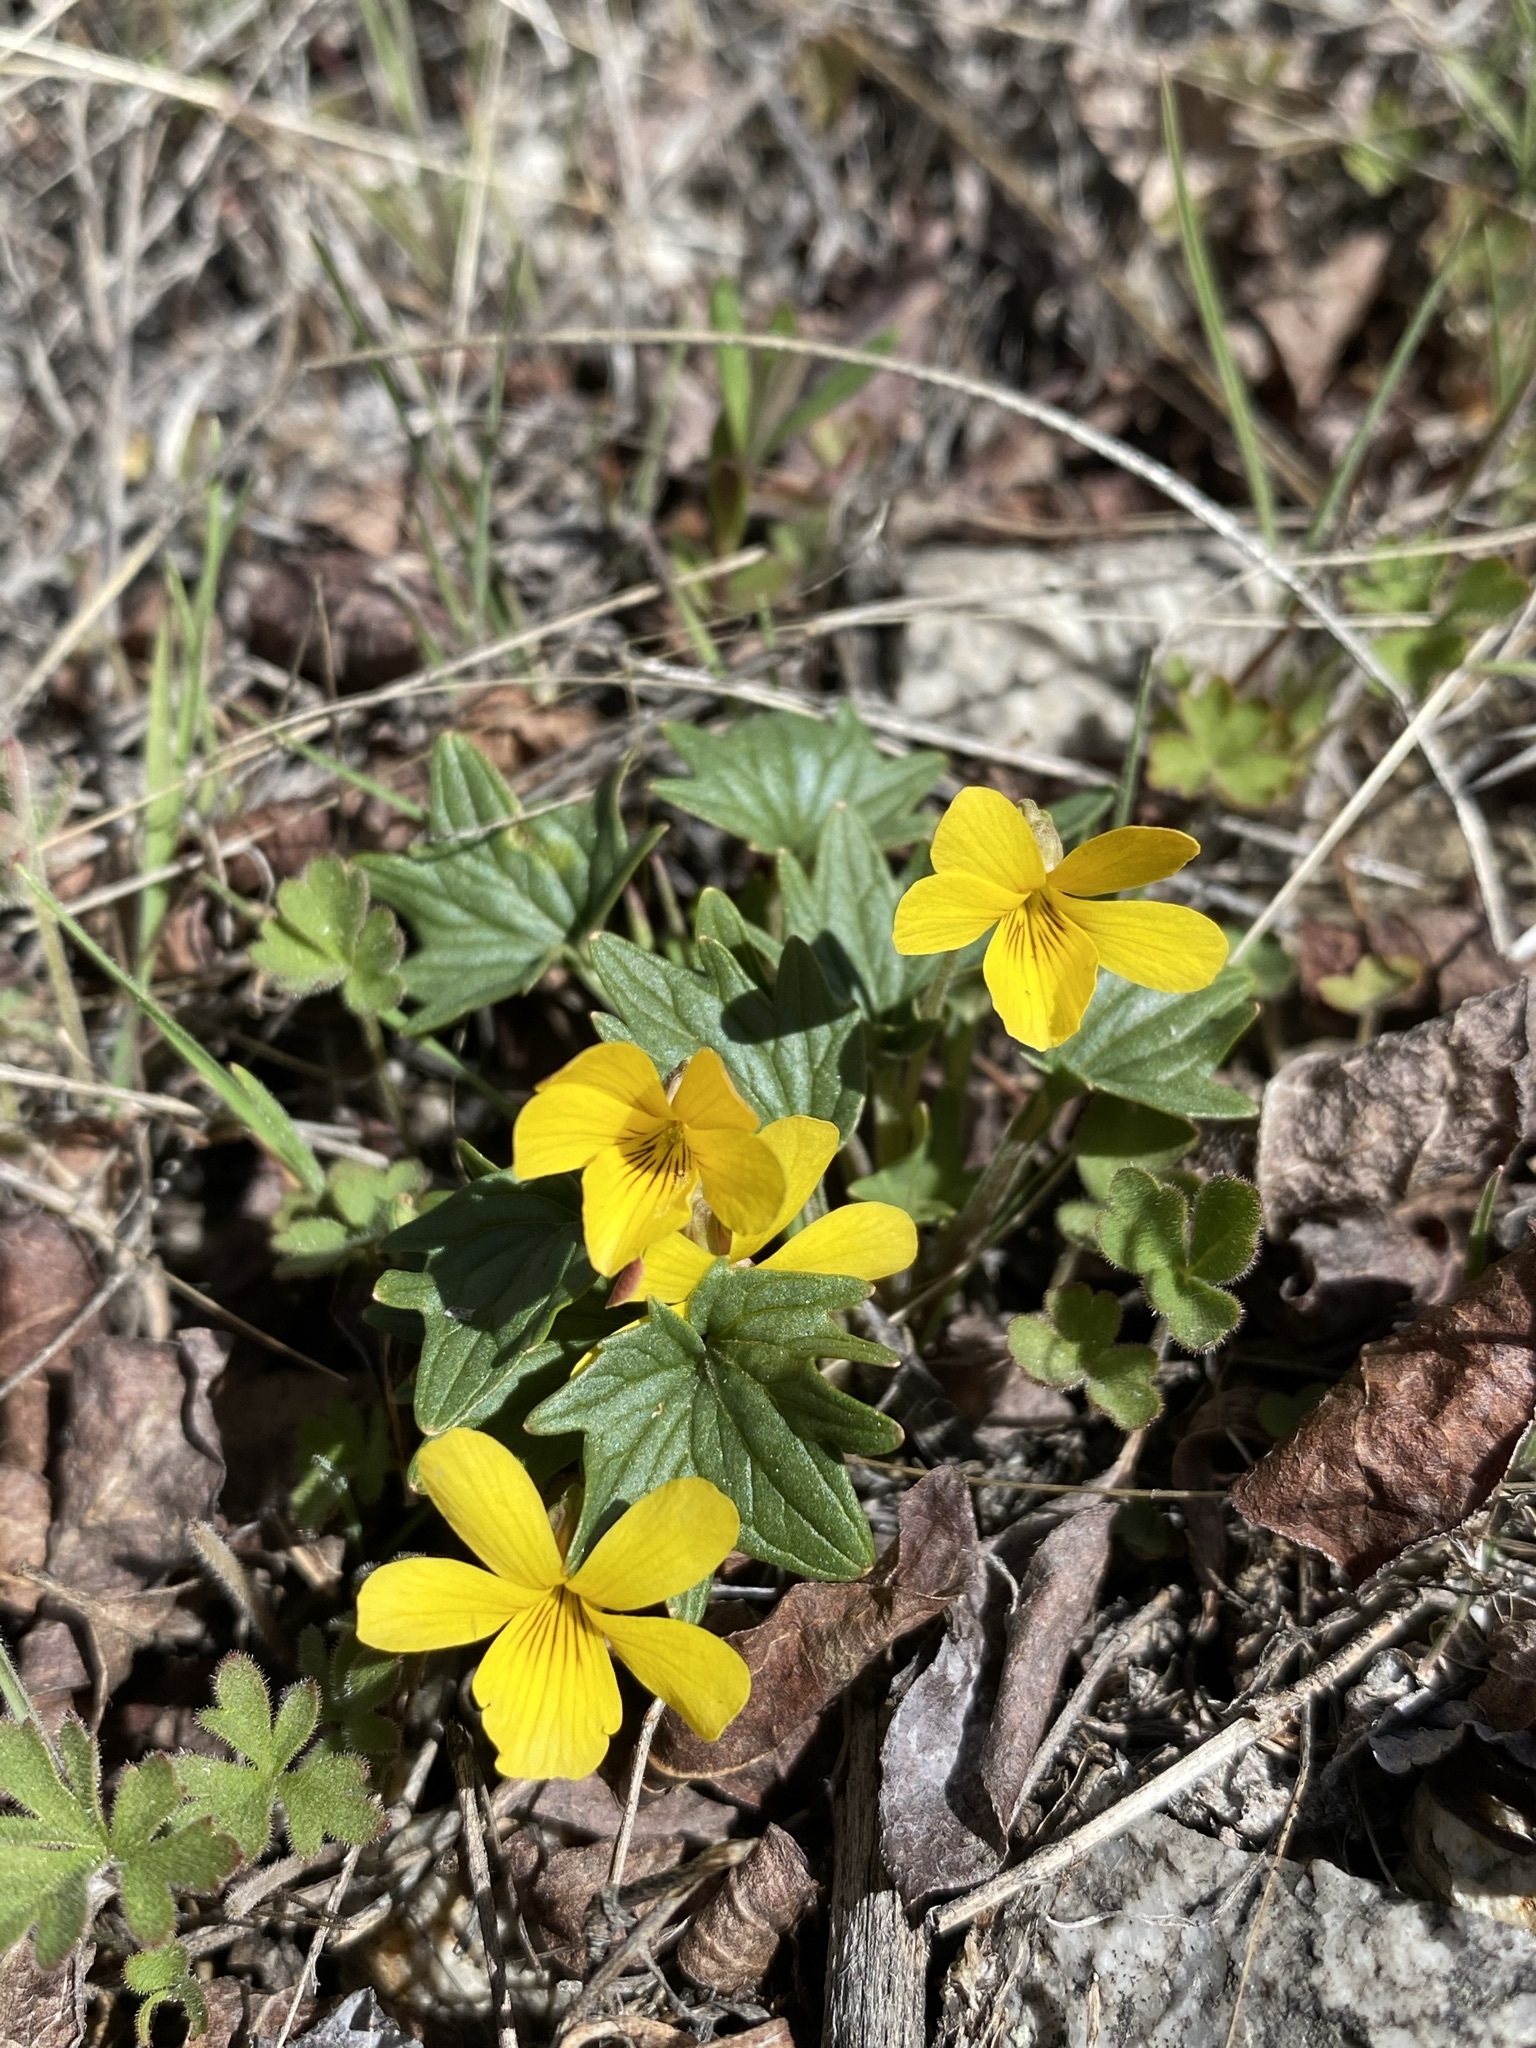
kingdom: Plantae
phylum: Tracheophyta
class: Magnoliopsida
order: Malpighiales
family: Violaceae
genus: Viola
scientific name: Viola purpurea
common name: Pine violet
